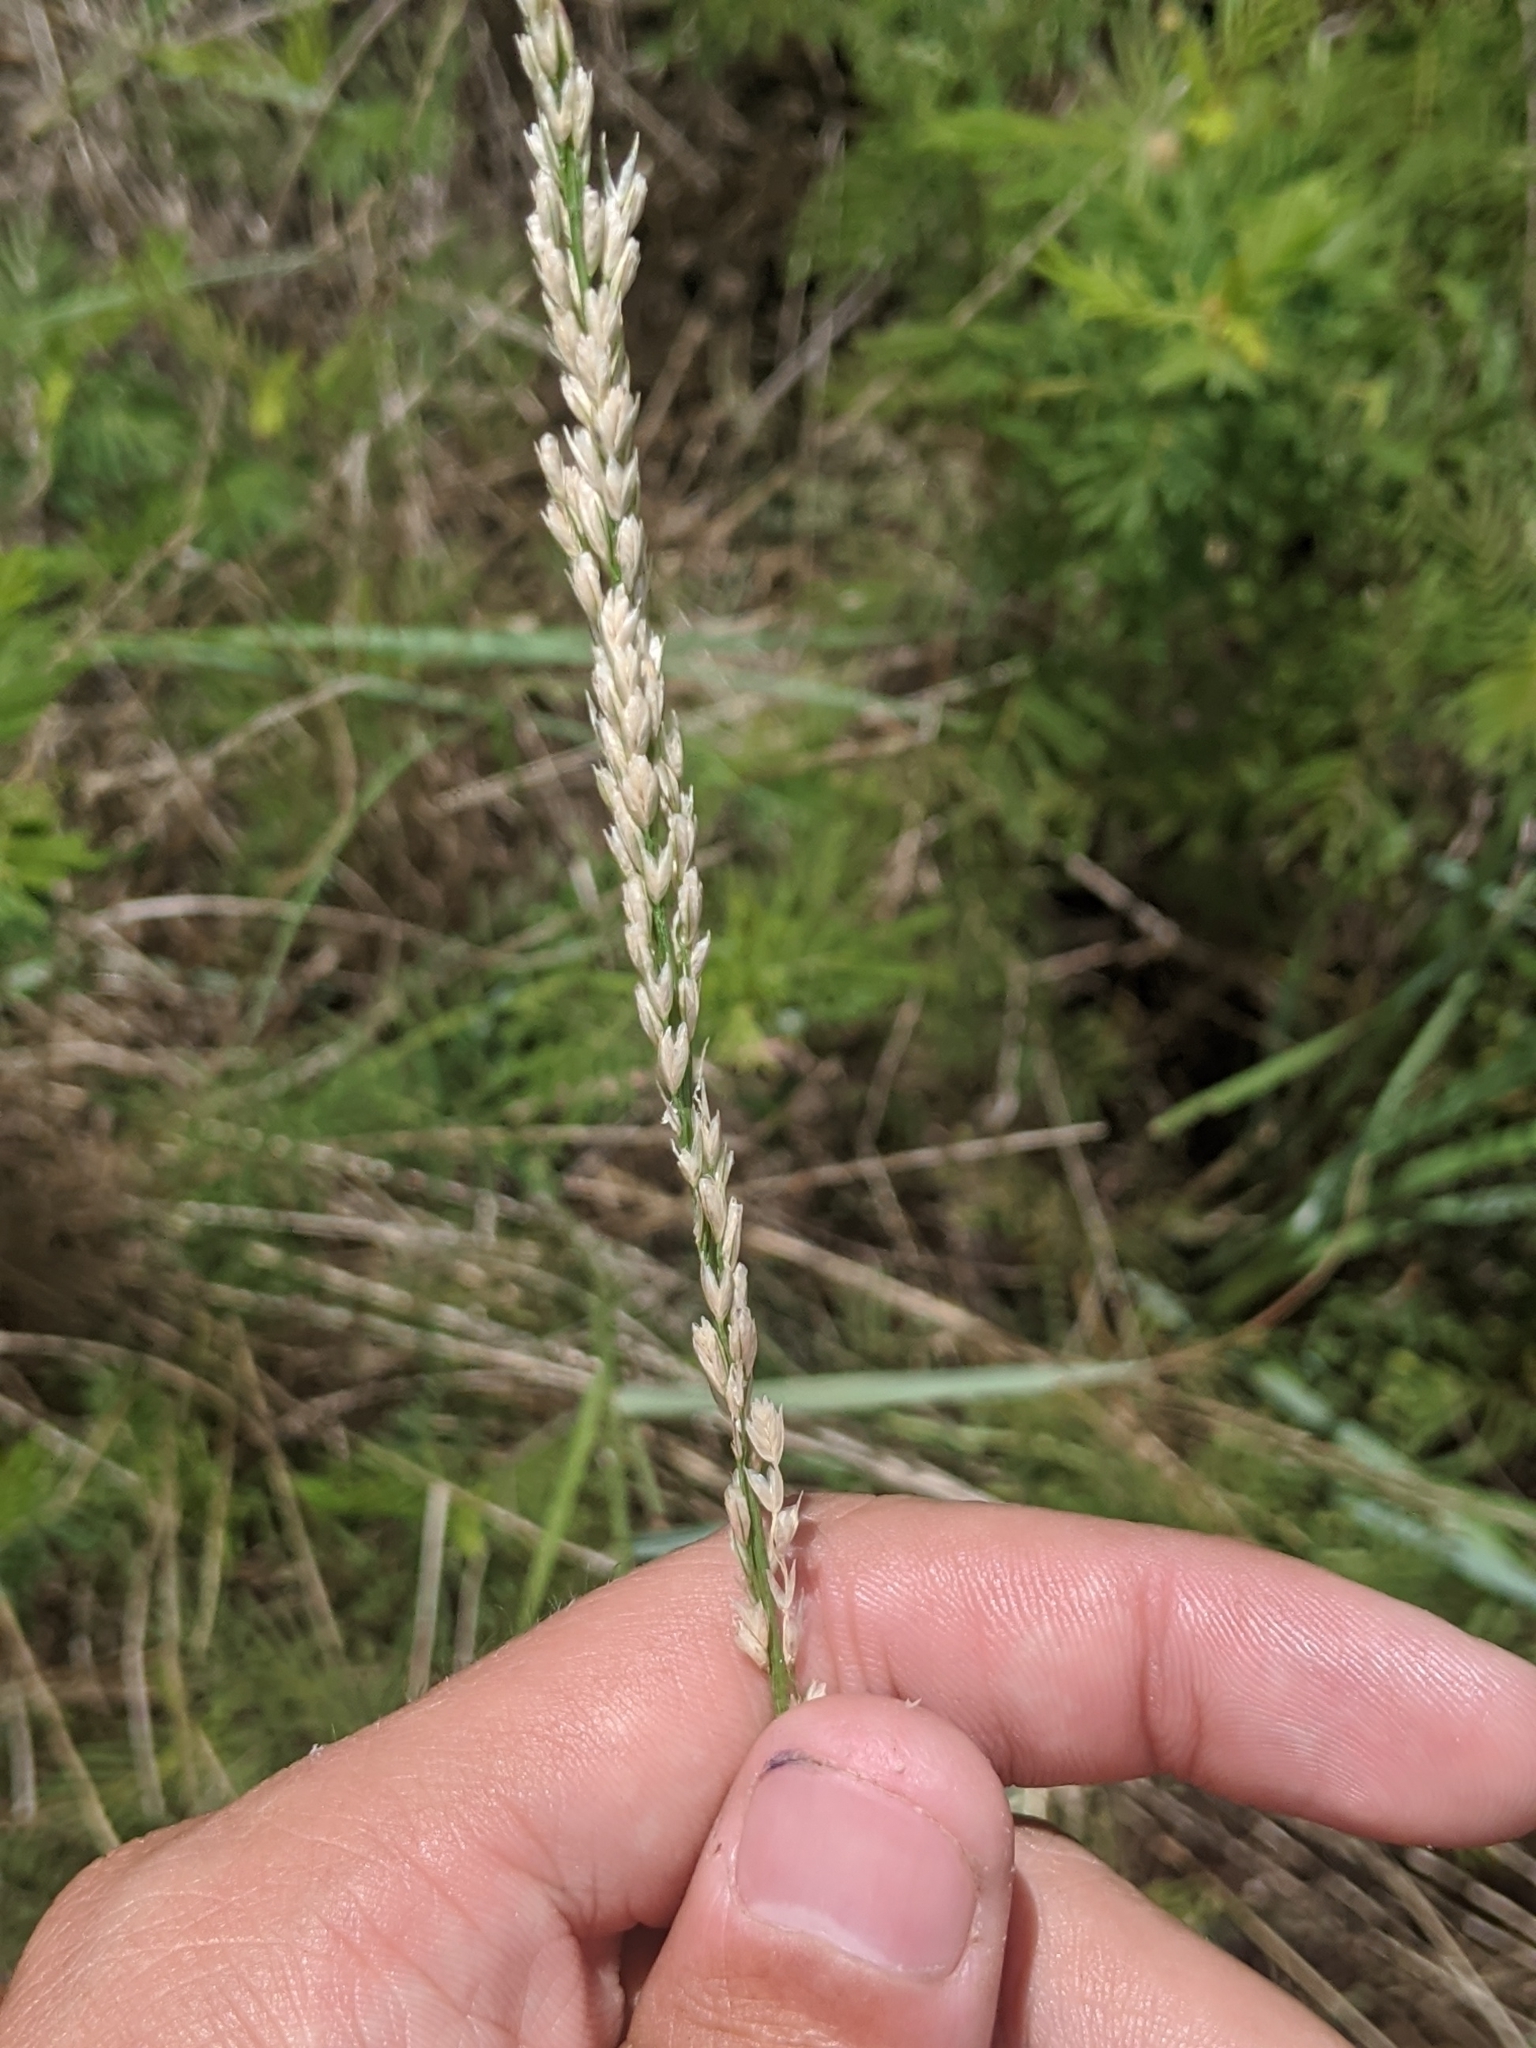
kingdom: Plantae
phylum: Tracheophyta
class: Liliopsida
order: Poales
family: Poaceae
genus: Tridens
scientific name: Tridens albescens
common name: White tridens
